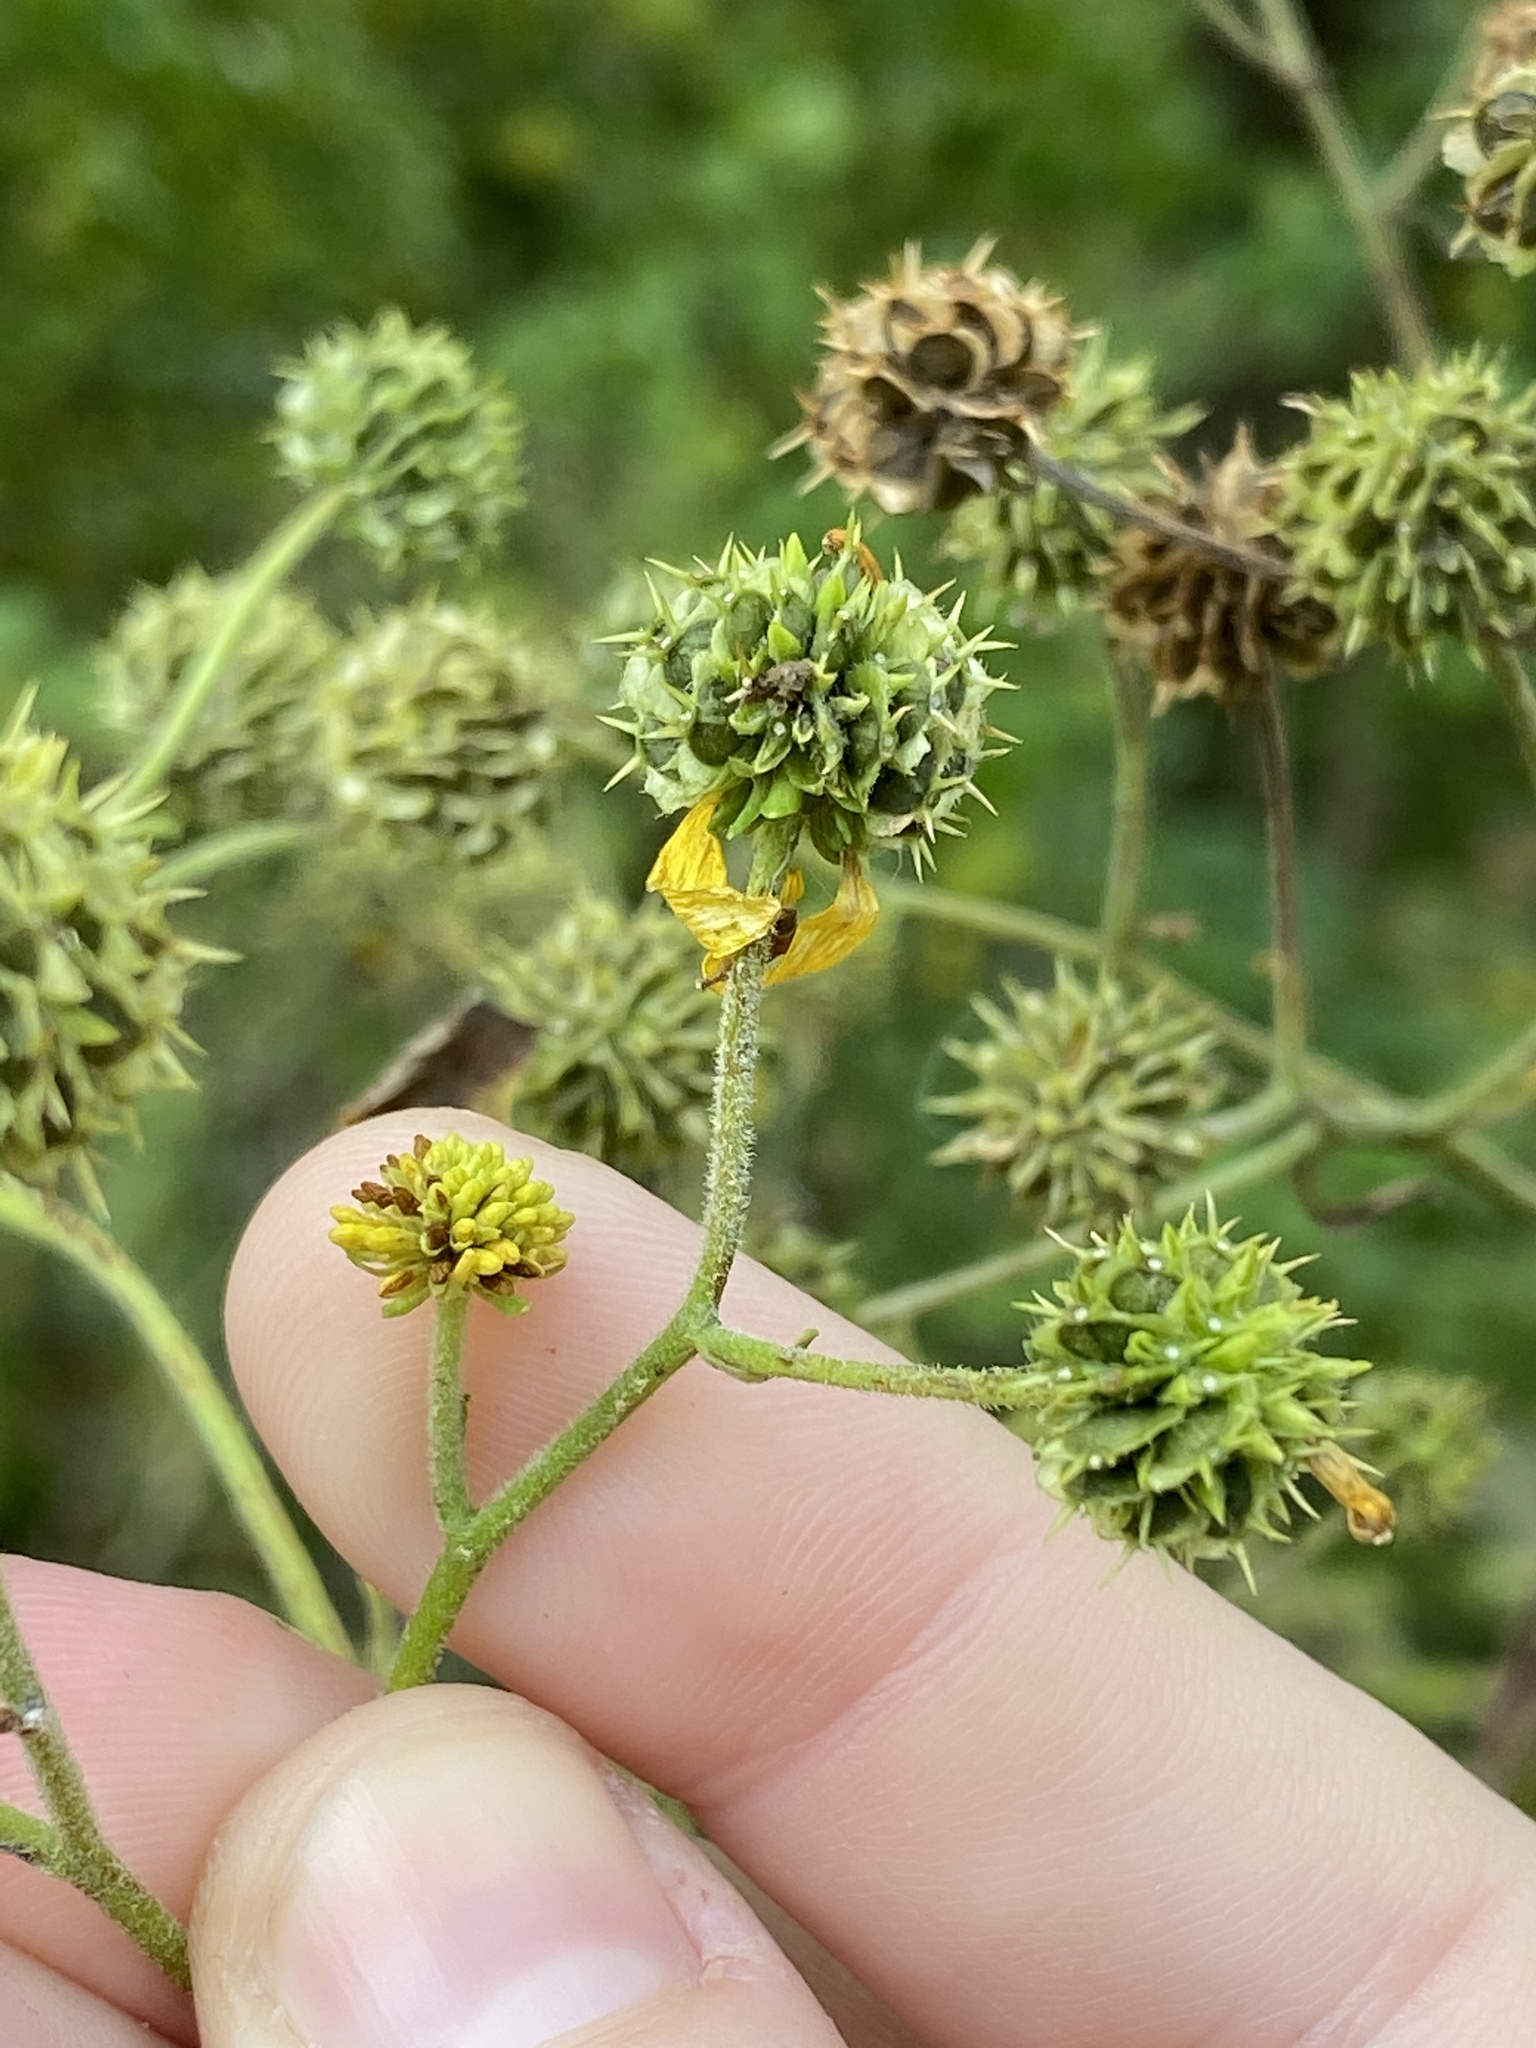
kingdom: Plantae
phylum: Tracheophyta
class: Magnoliopsida
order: Asterales
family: Asteraceae
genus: Verbesina
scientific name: Verbesina alternifolia
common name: Wingstem
